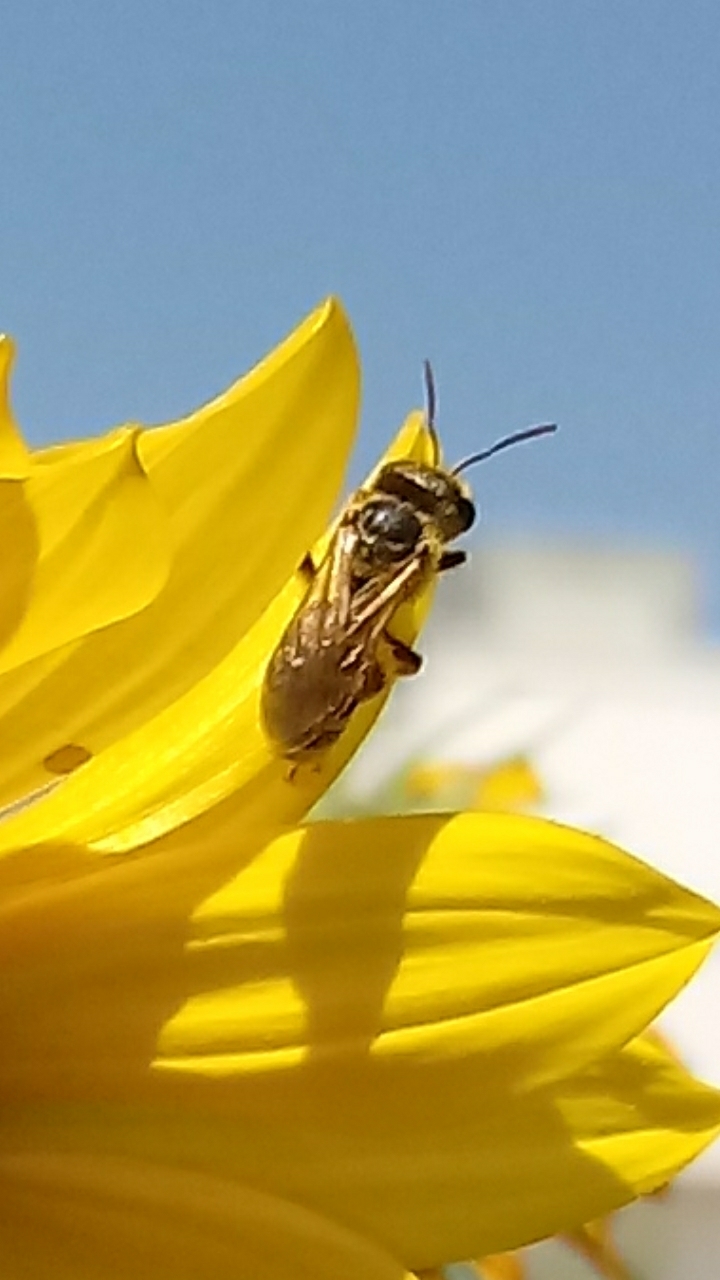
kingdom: Animalia
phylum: Arthropoda
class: Insecta
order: Hymenoptera
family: Halictidae
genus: Halictus
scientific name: Halictus ligatus
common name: Ligated furrow bee
